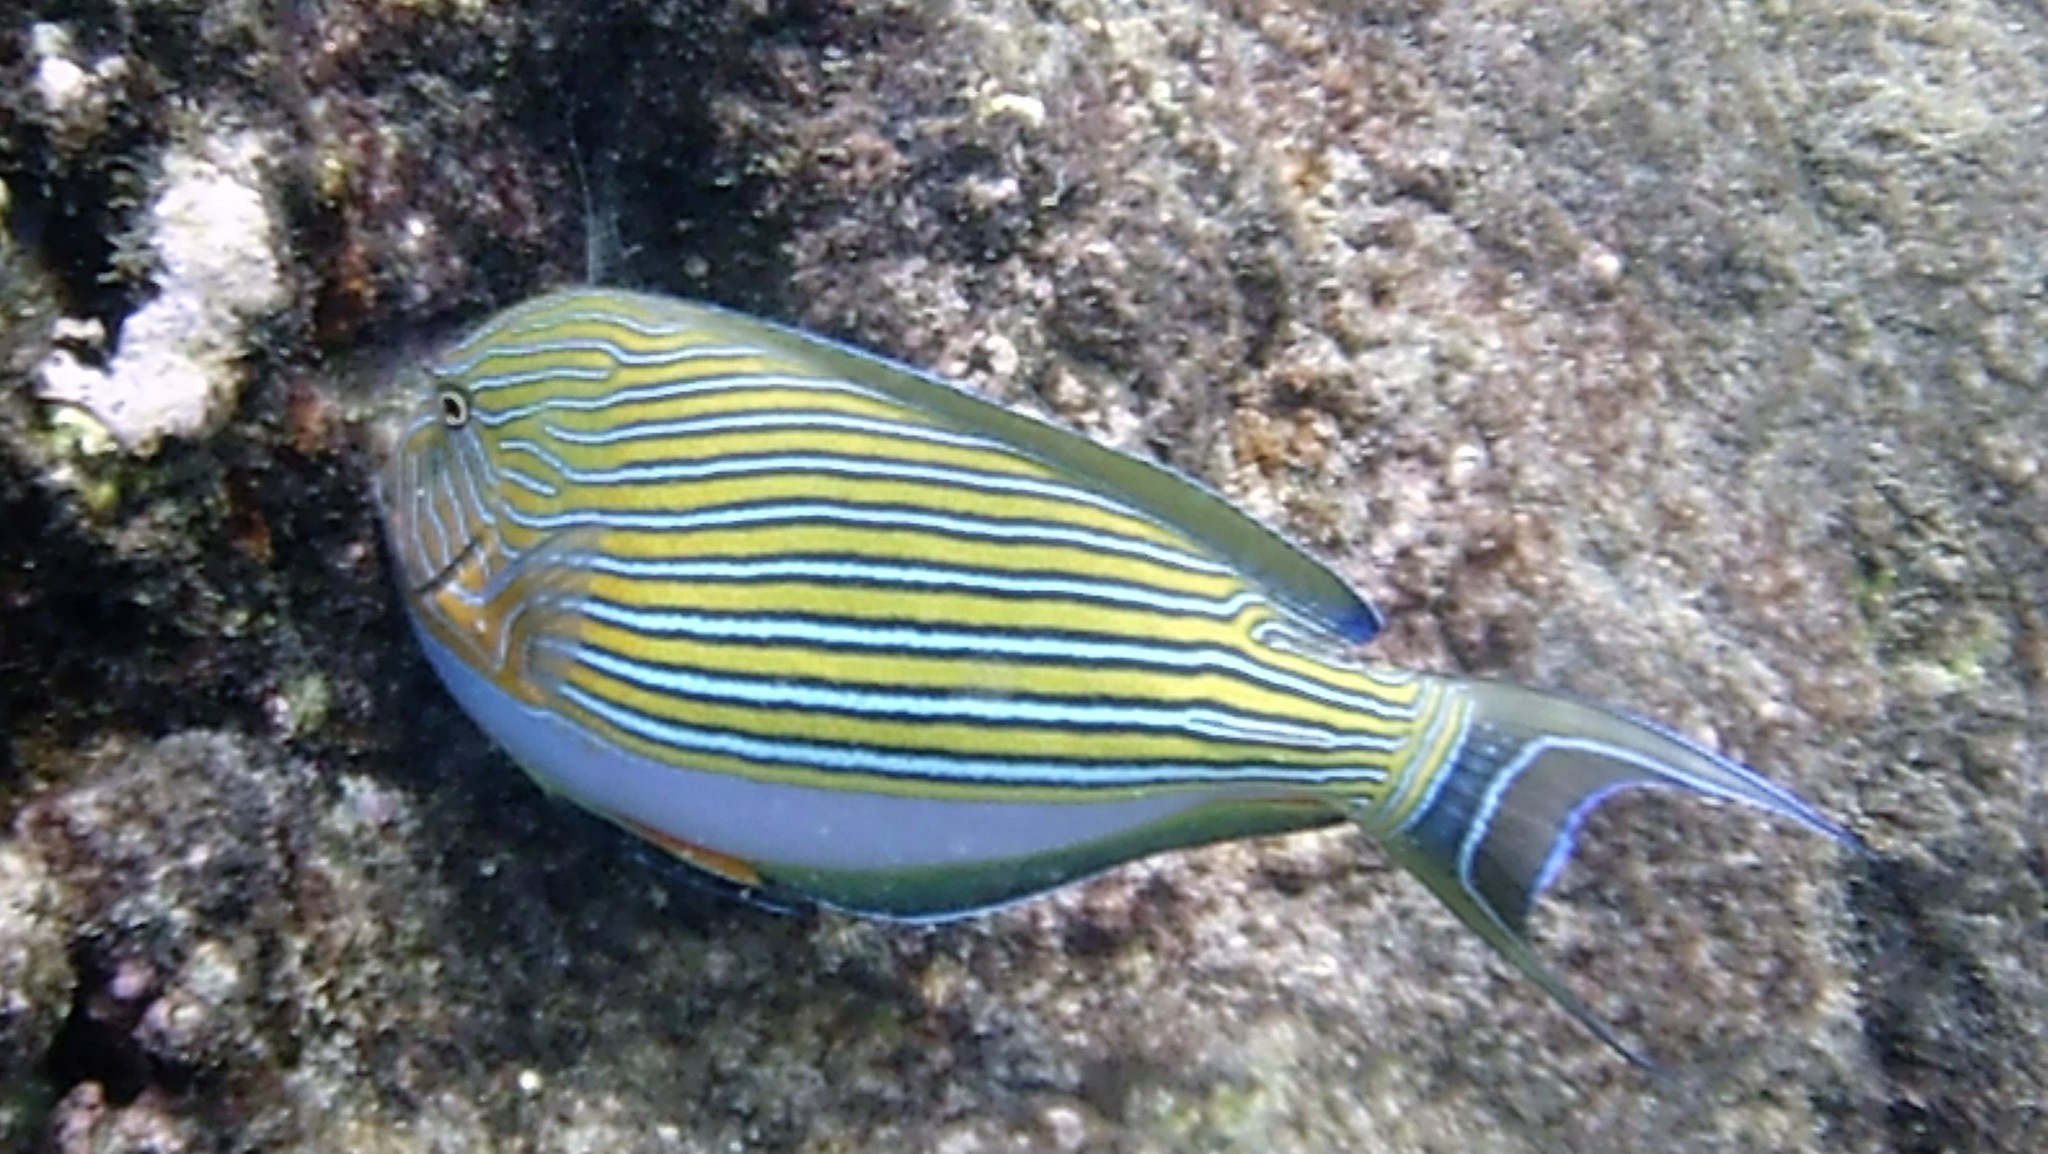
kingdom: Animalia
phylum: Chordata
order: Perciformes
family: Acanthuridae
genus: Acanthurus
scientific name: Acanthurus lineatus
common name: Striped surgeonfish
